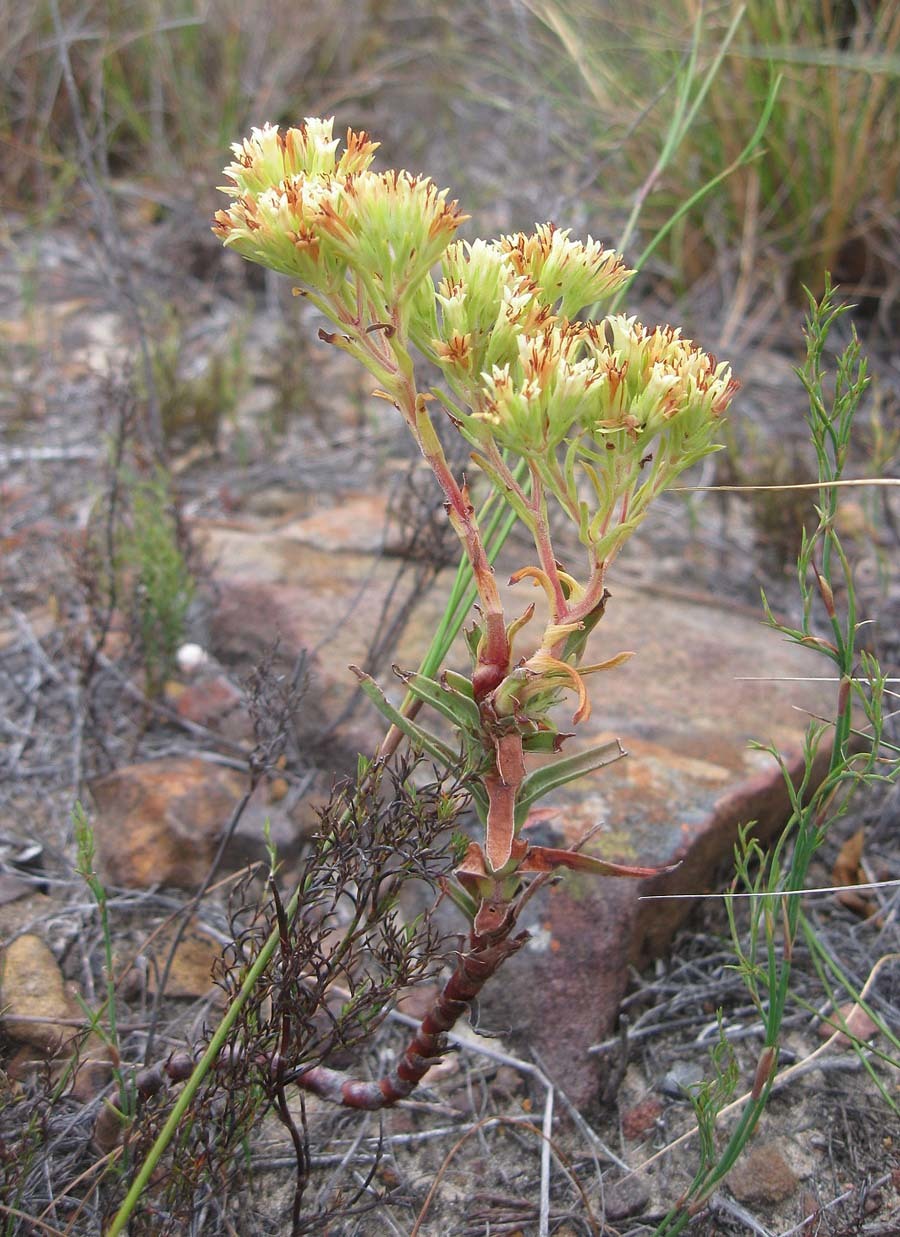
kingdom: Plantae
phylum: Tracheophyta
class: Magnoliopsida
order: Saxifragales
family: Crassulaceae
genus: Crassula
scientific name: Crassula flava
